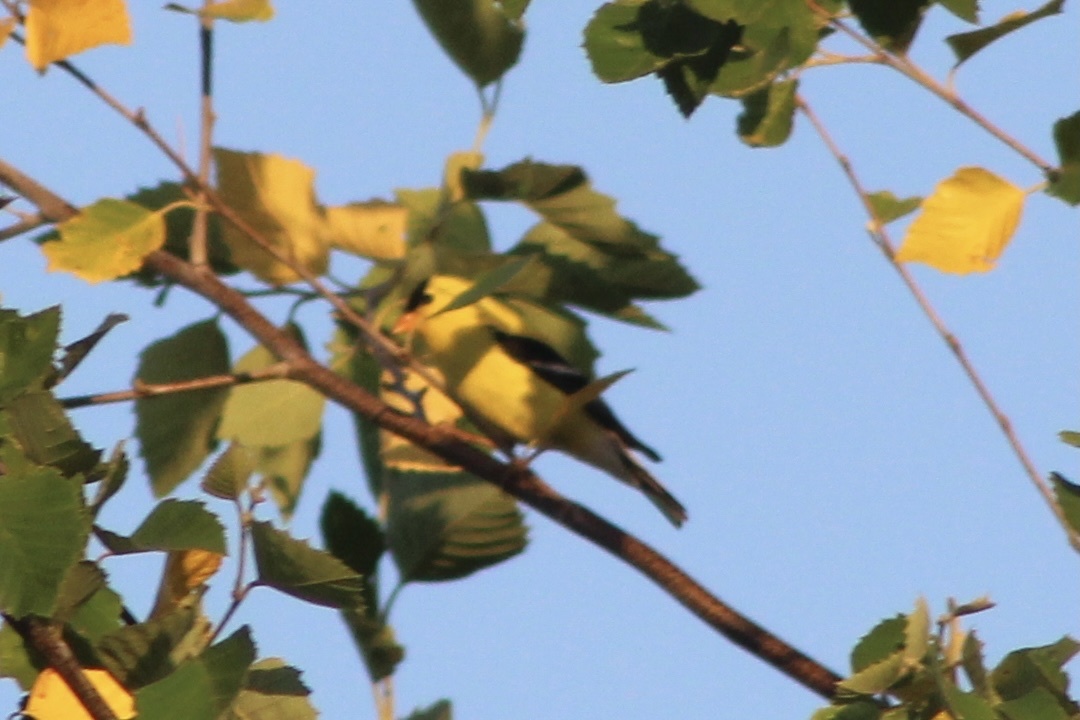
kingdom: Animalia
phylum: Chordata
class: Aves
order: Passeriformes
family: Fringillidae
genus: Spinus
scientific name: Spinus tristis
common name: American goldfinch
